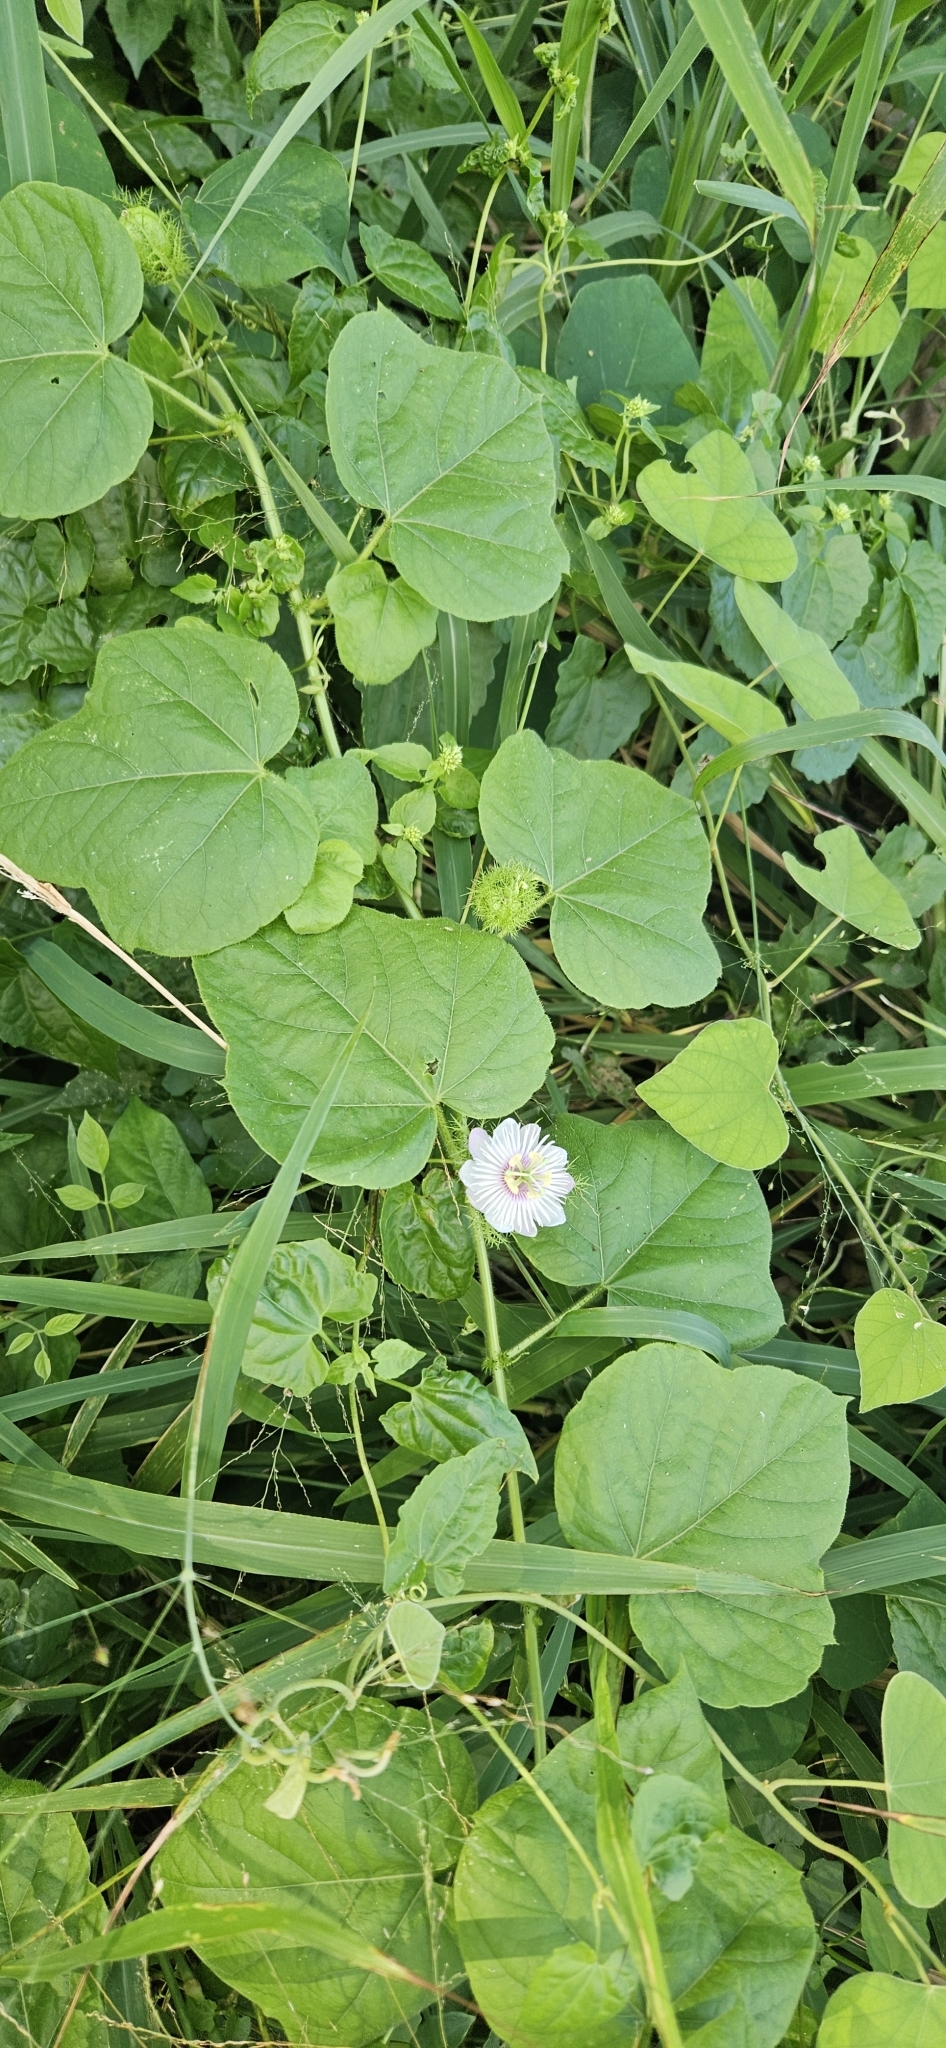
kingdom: Plantae
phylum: Tracheophyta
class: Magnoliopsida
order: Malpighiales
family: Passifloraceae
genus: Passiflora
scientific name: Passiflora vesicaria
